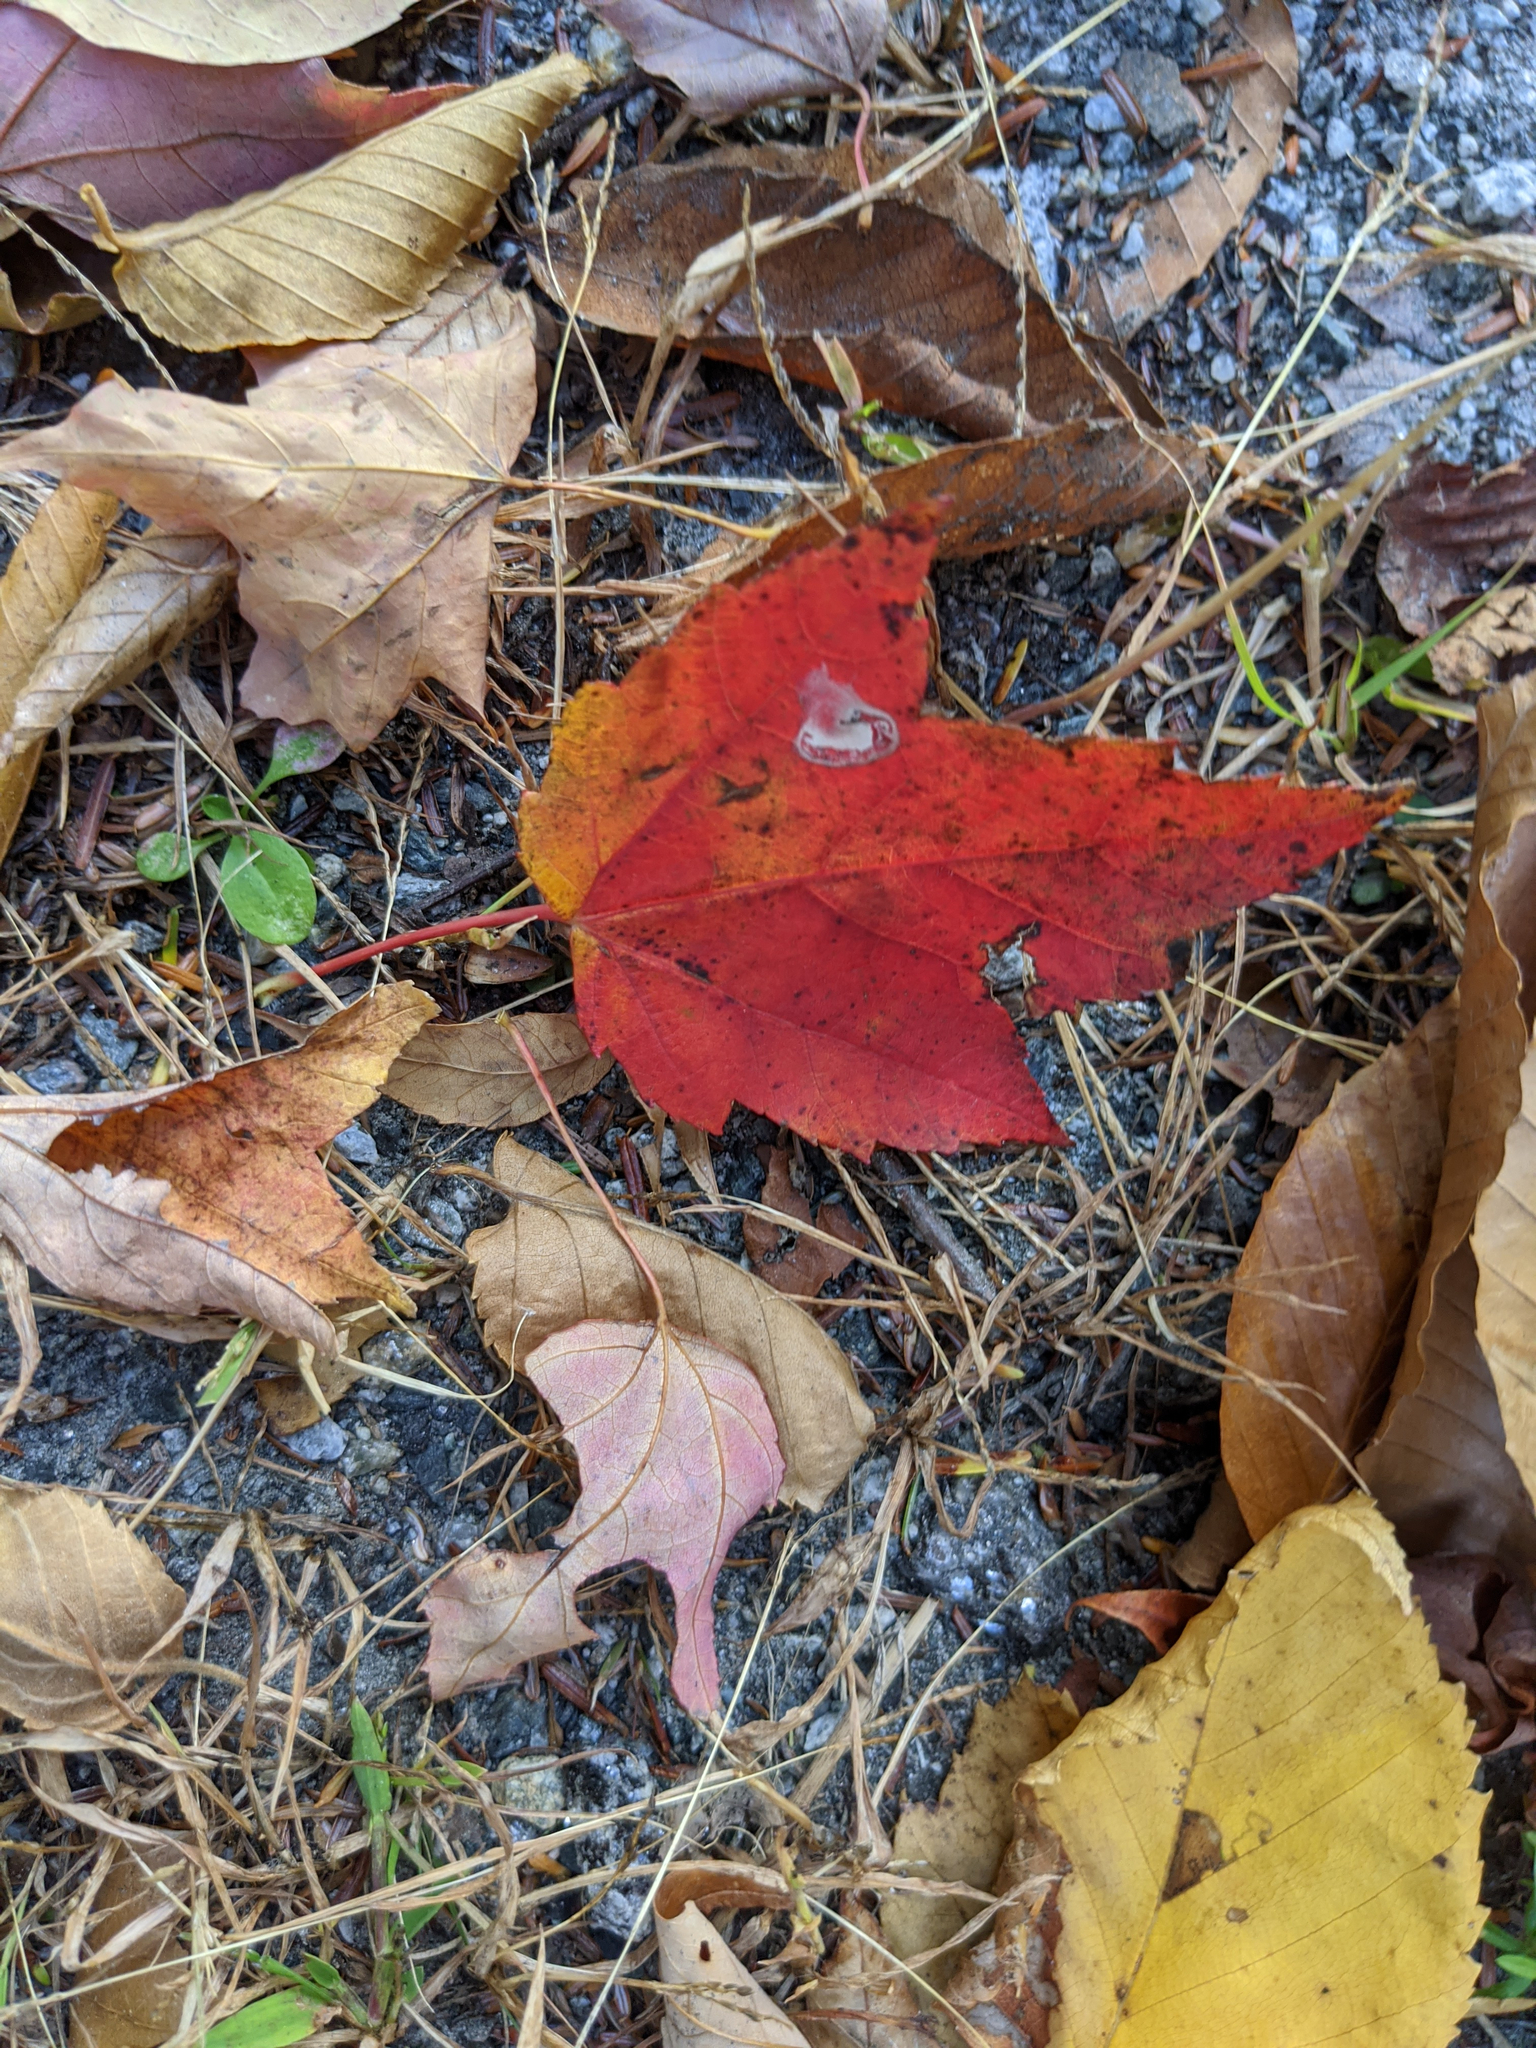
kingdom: Plantae
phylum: Tracheophyta
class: Magnoliopsida
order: Sapindales
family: Sapindaceae
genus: Acer
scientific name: Acer rubrum
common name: Red maple
